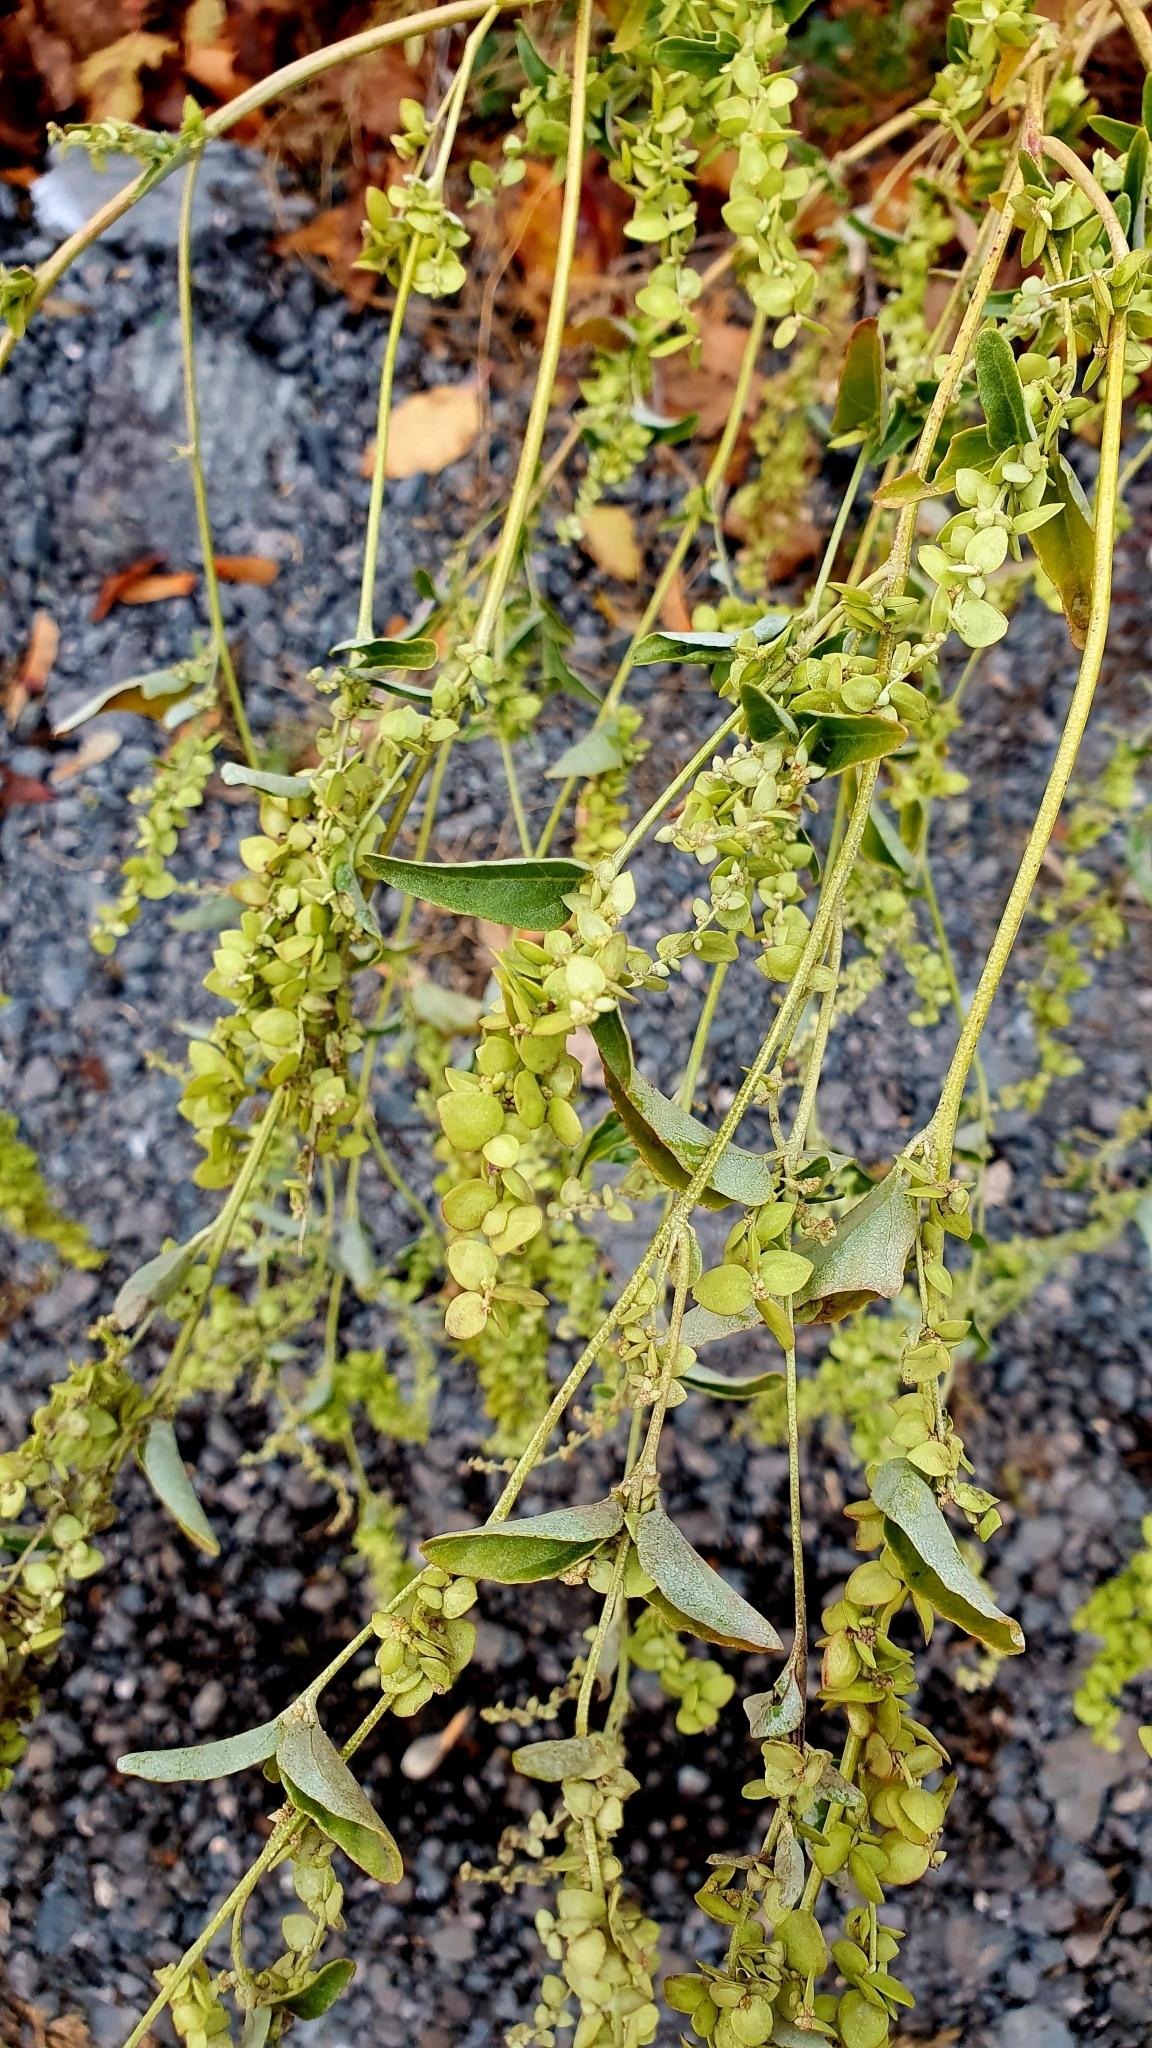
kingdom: Plantae
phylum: Tracheophyta
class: Magnoliopsida
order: Caryophyllales
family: Amaranthaceae
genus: Atriplex
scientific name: Atriplex sagittata
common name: Purple orache
